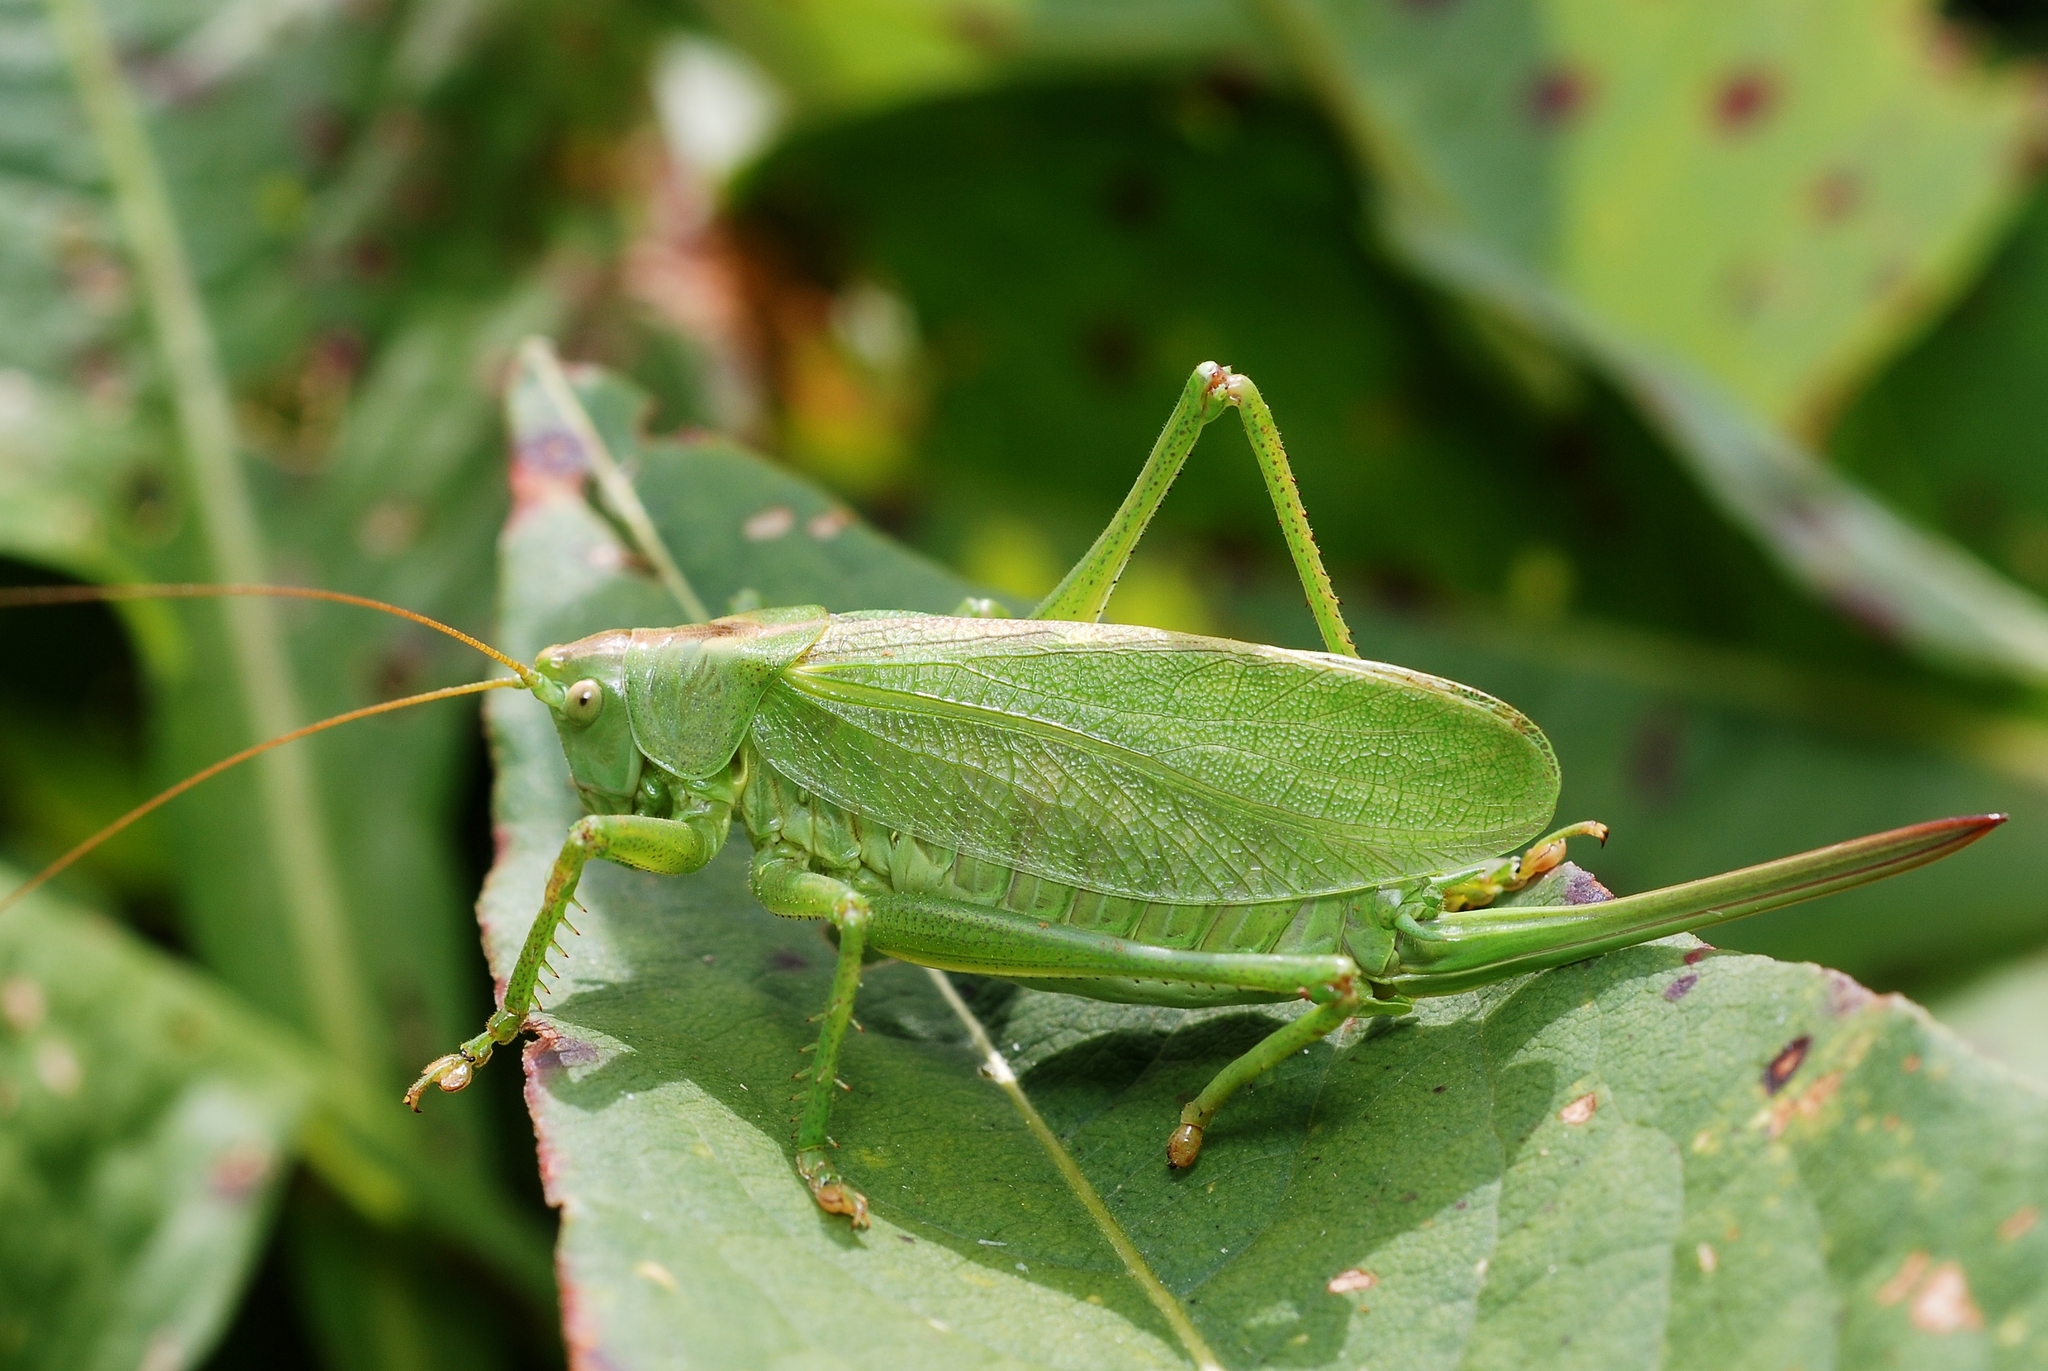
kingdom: Animalia
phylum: Arthropoda
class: Insecta
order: Orthoptera
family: Tettigoniidae
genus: Tettigonia
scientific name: Tettigonia cantans
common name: Upland green bush-cricket
